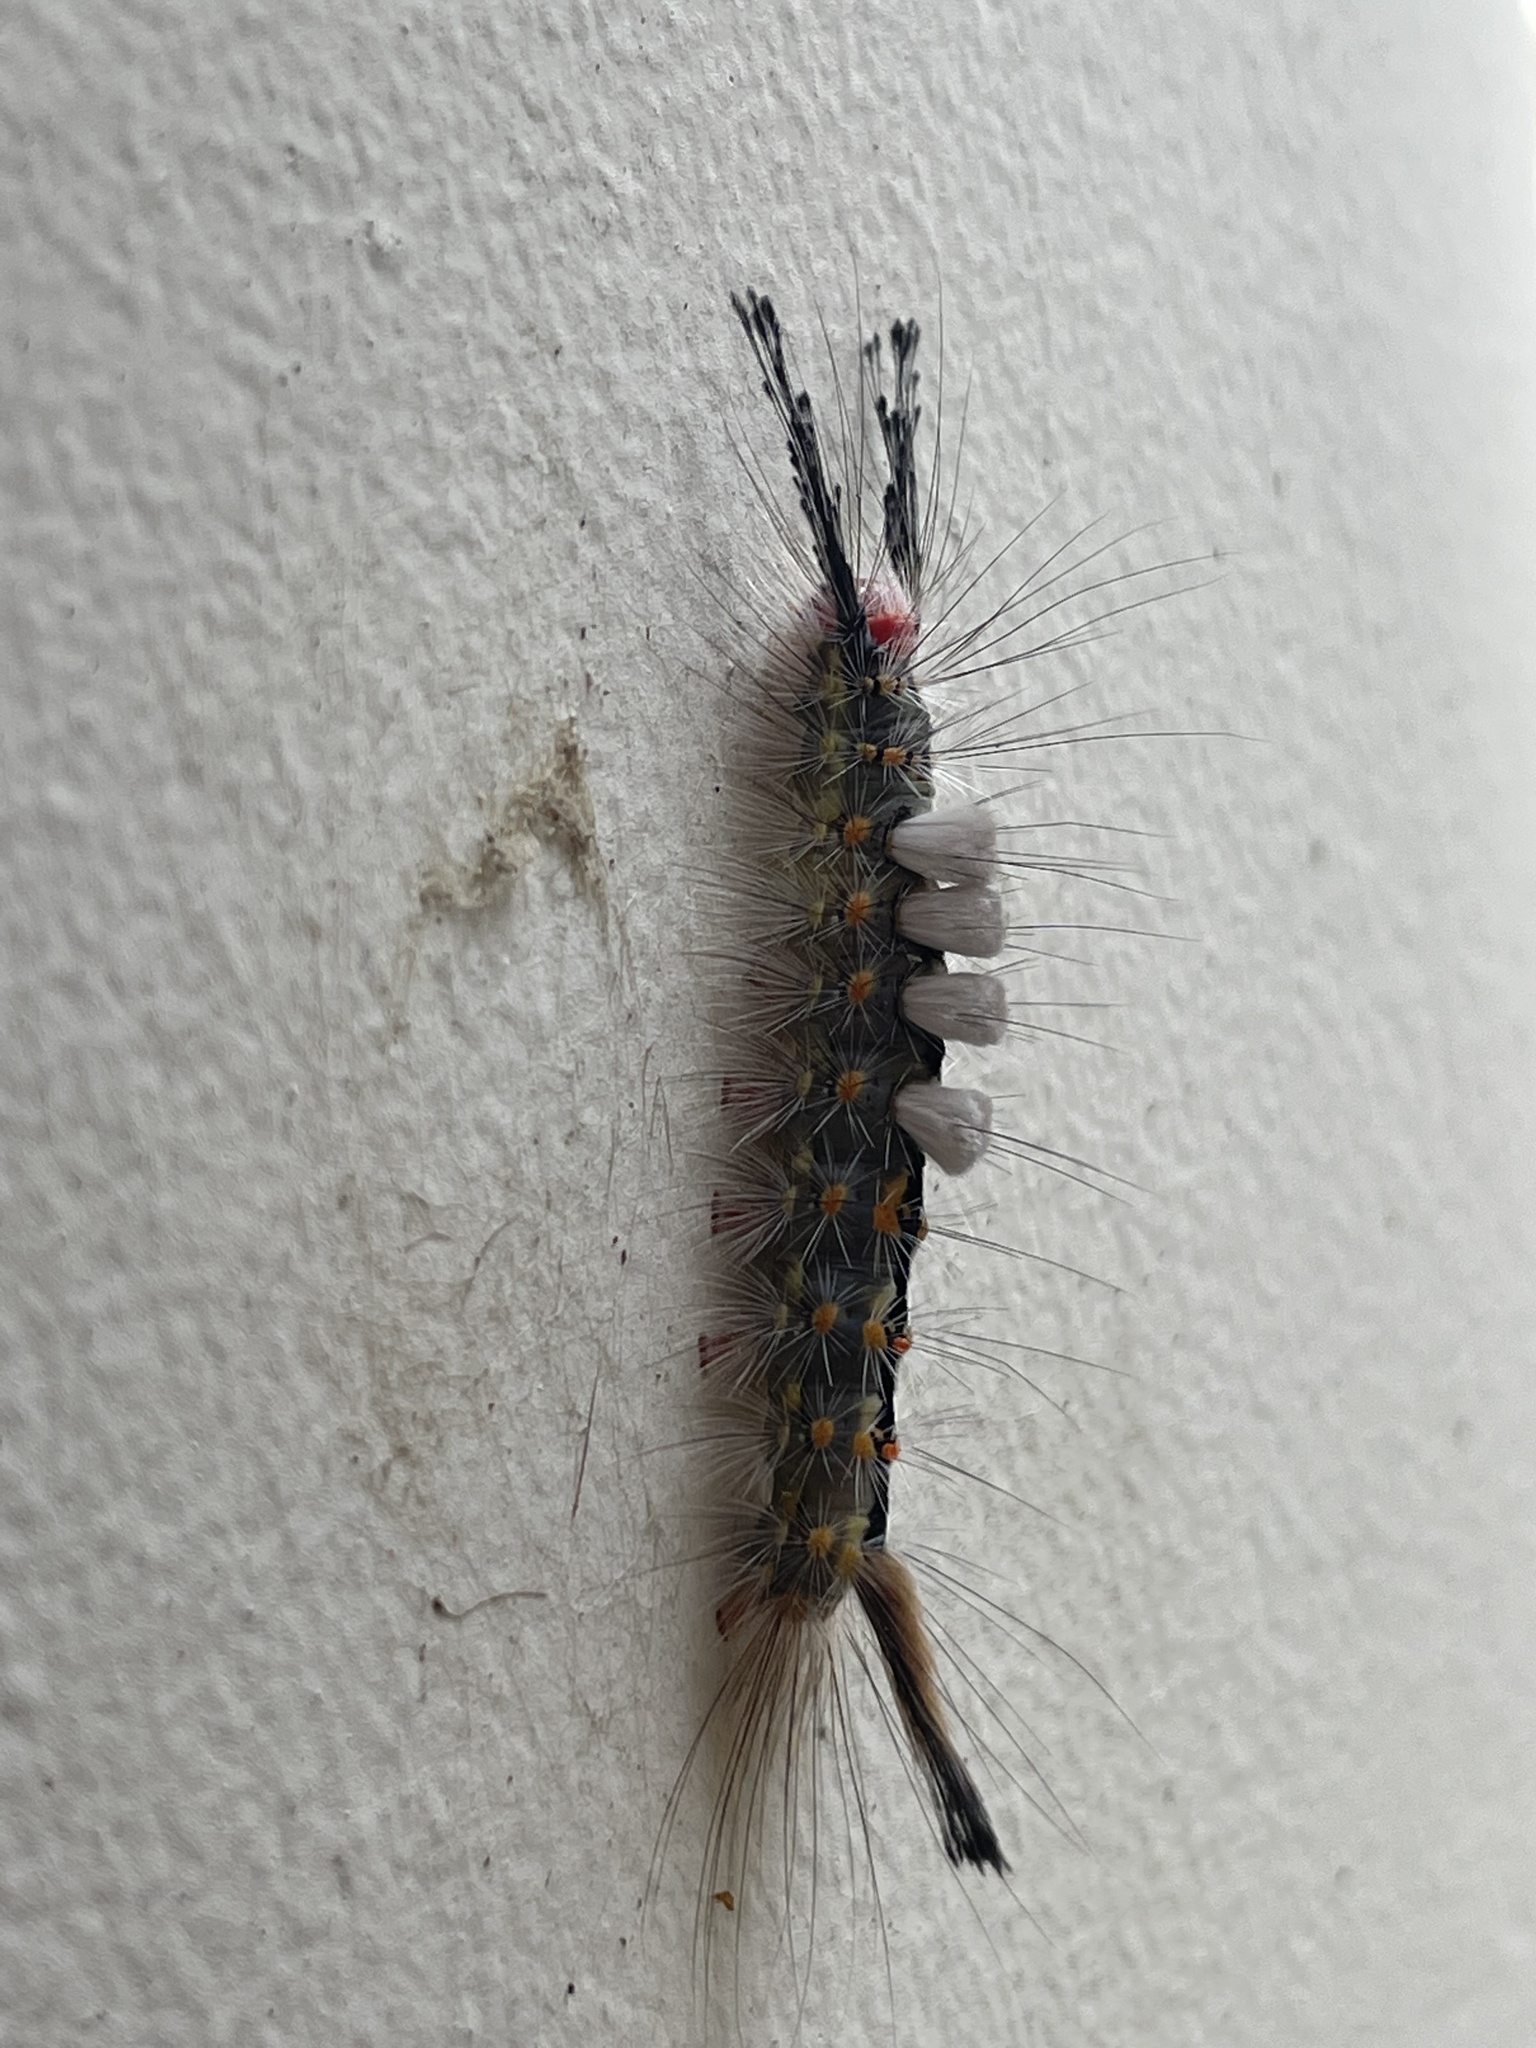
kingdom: Animalia
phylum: Arthropoda
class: Insecta
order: Lepidoptera
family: Erebidae
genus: Orgyia
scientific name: Orgyia detrita
